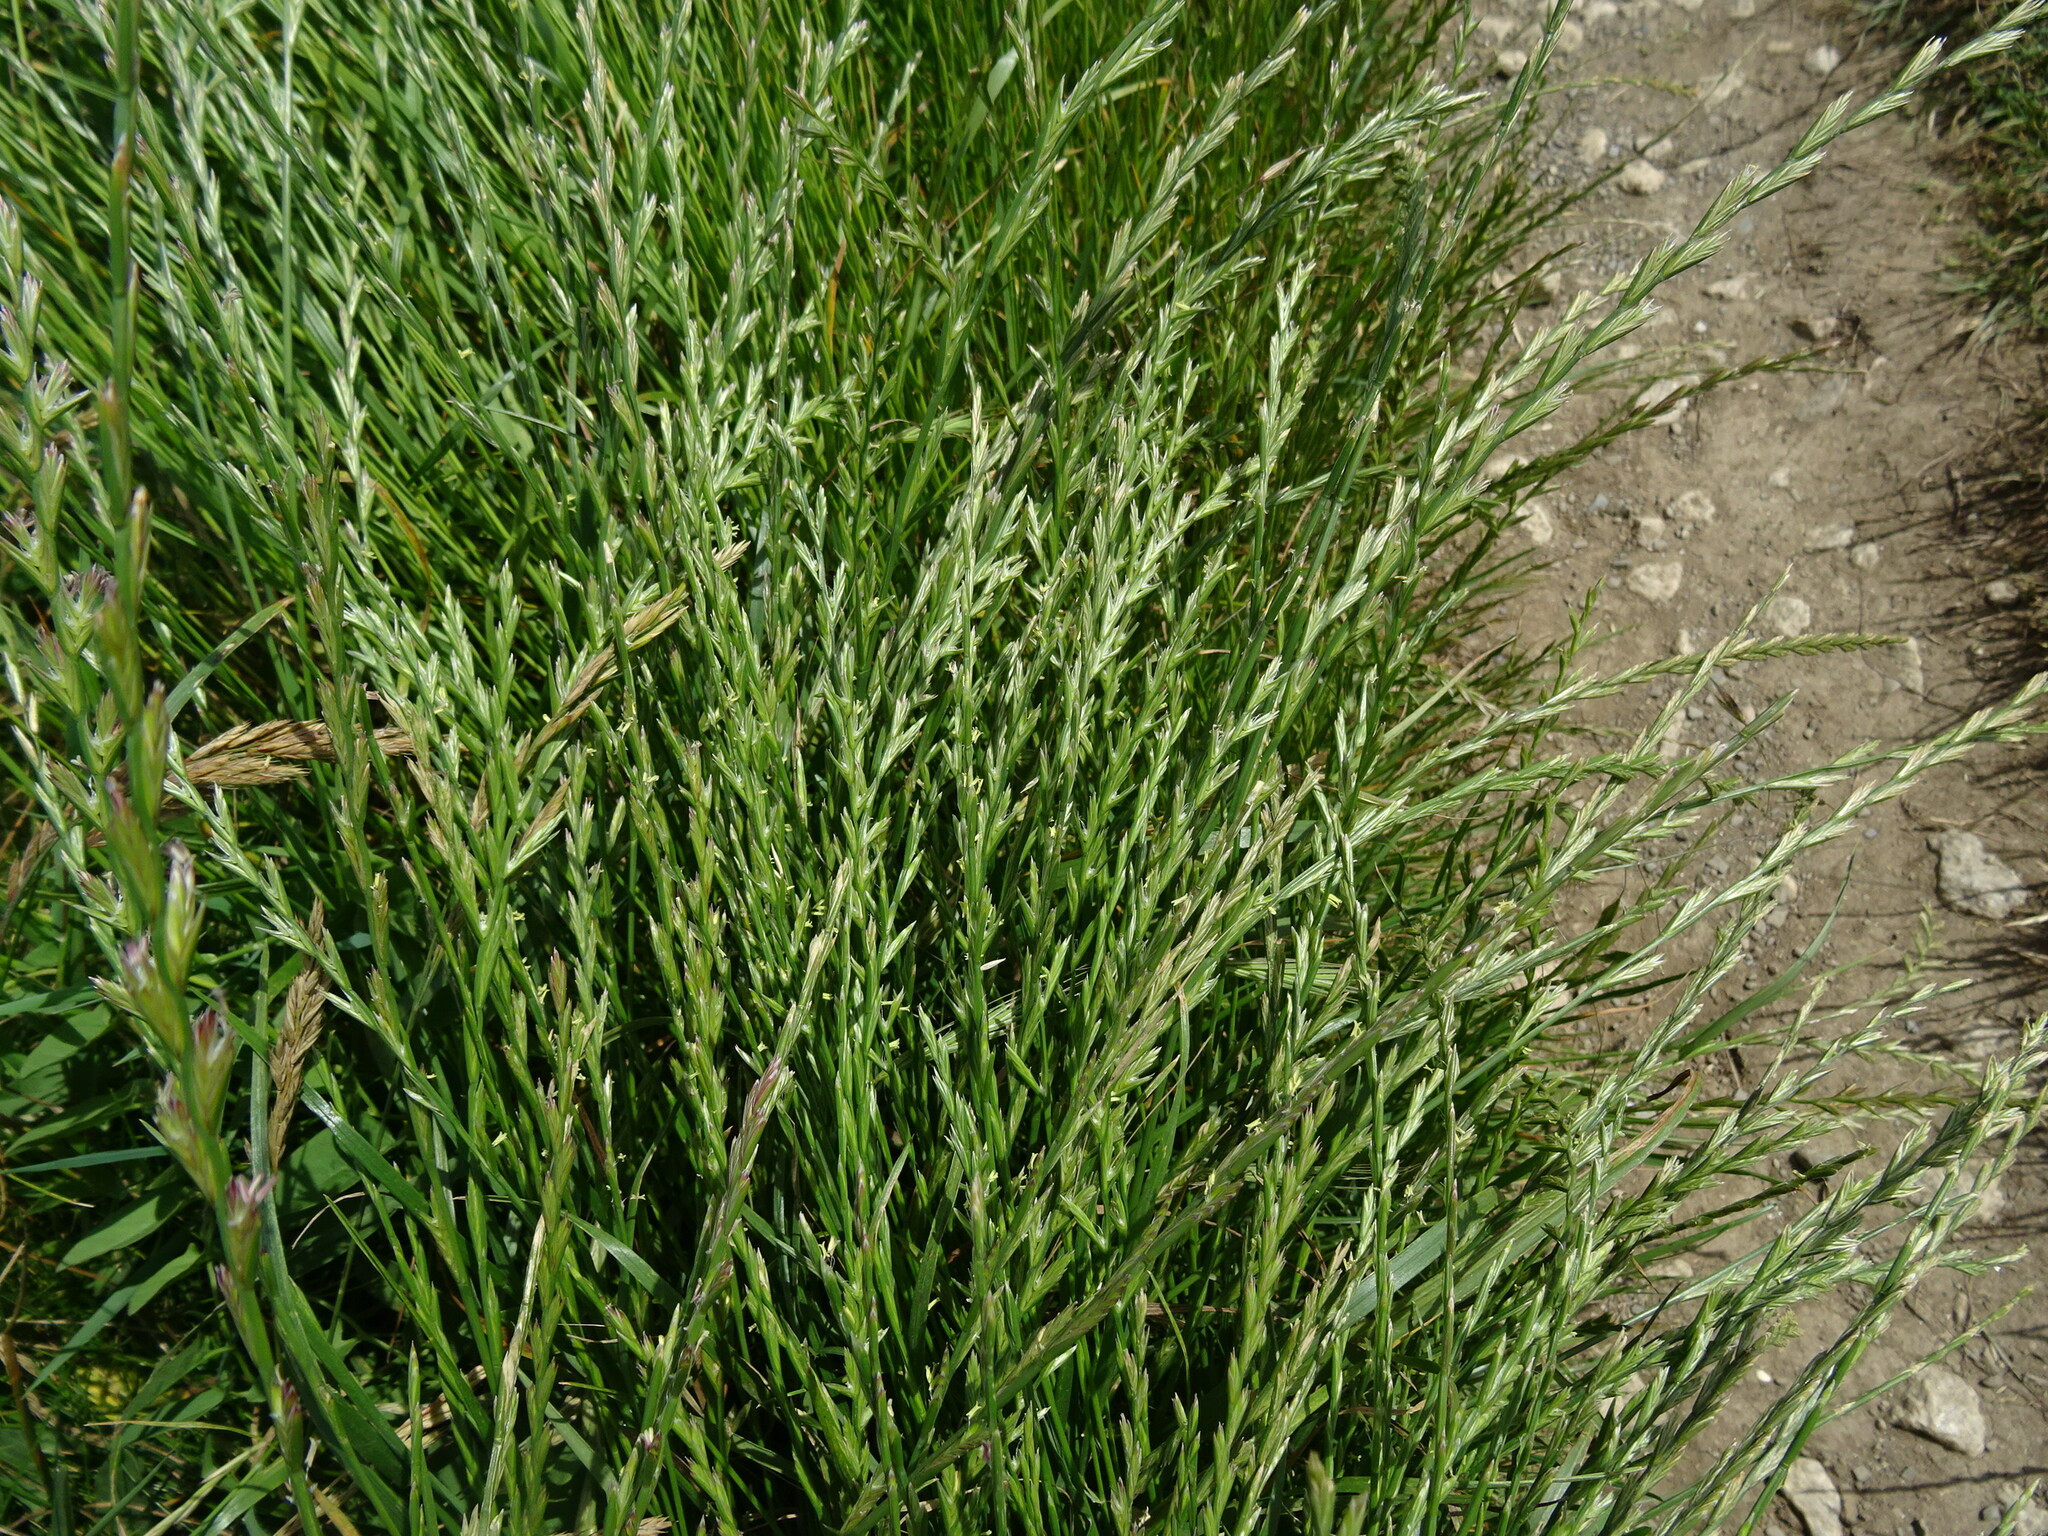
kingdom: Plantae
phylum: Tracheophyta
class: Liliopsida
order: Poales
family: Poaceae
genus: Lolium
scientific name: Lolium perenne
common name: Perennial ryegrass
